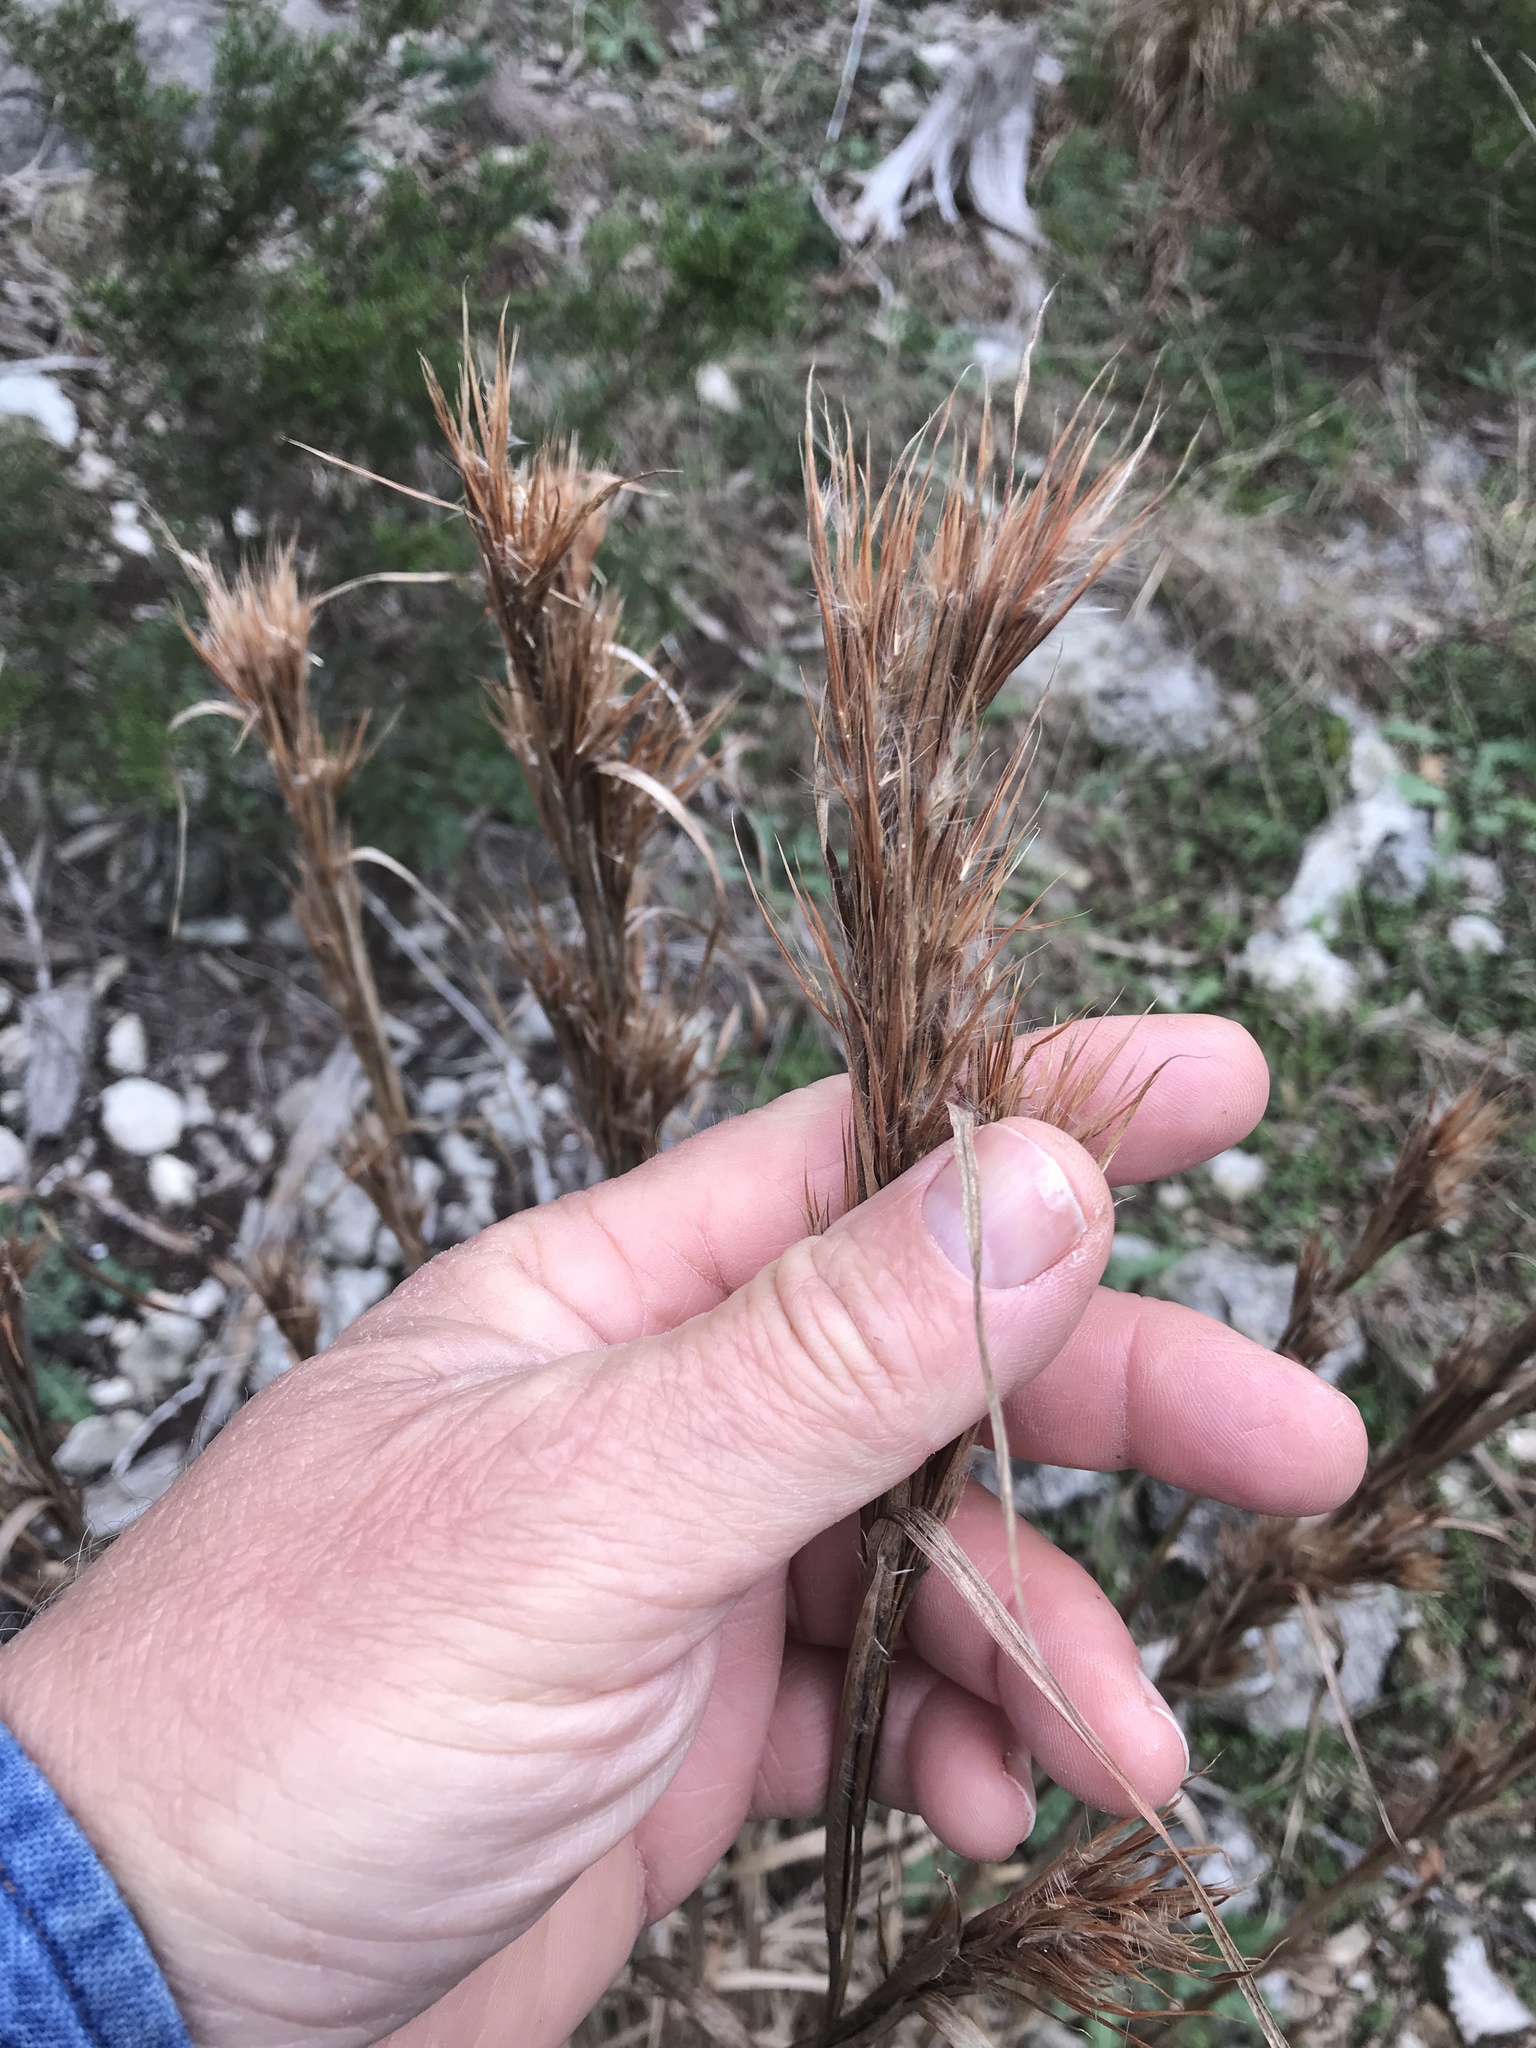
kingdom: Plantae
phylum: Tracheophyta
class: Liliopsida
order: Poales
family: Poaceae
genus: Andropogon
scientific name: Andropogon tenuispatheus
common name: Bushy bluestem
